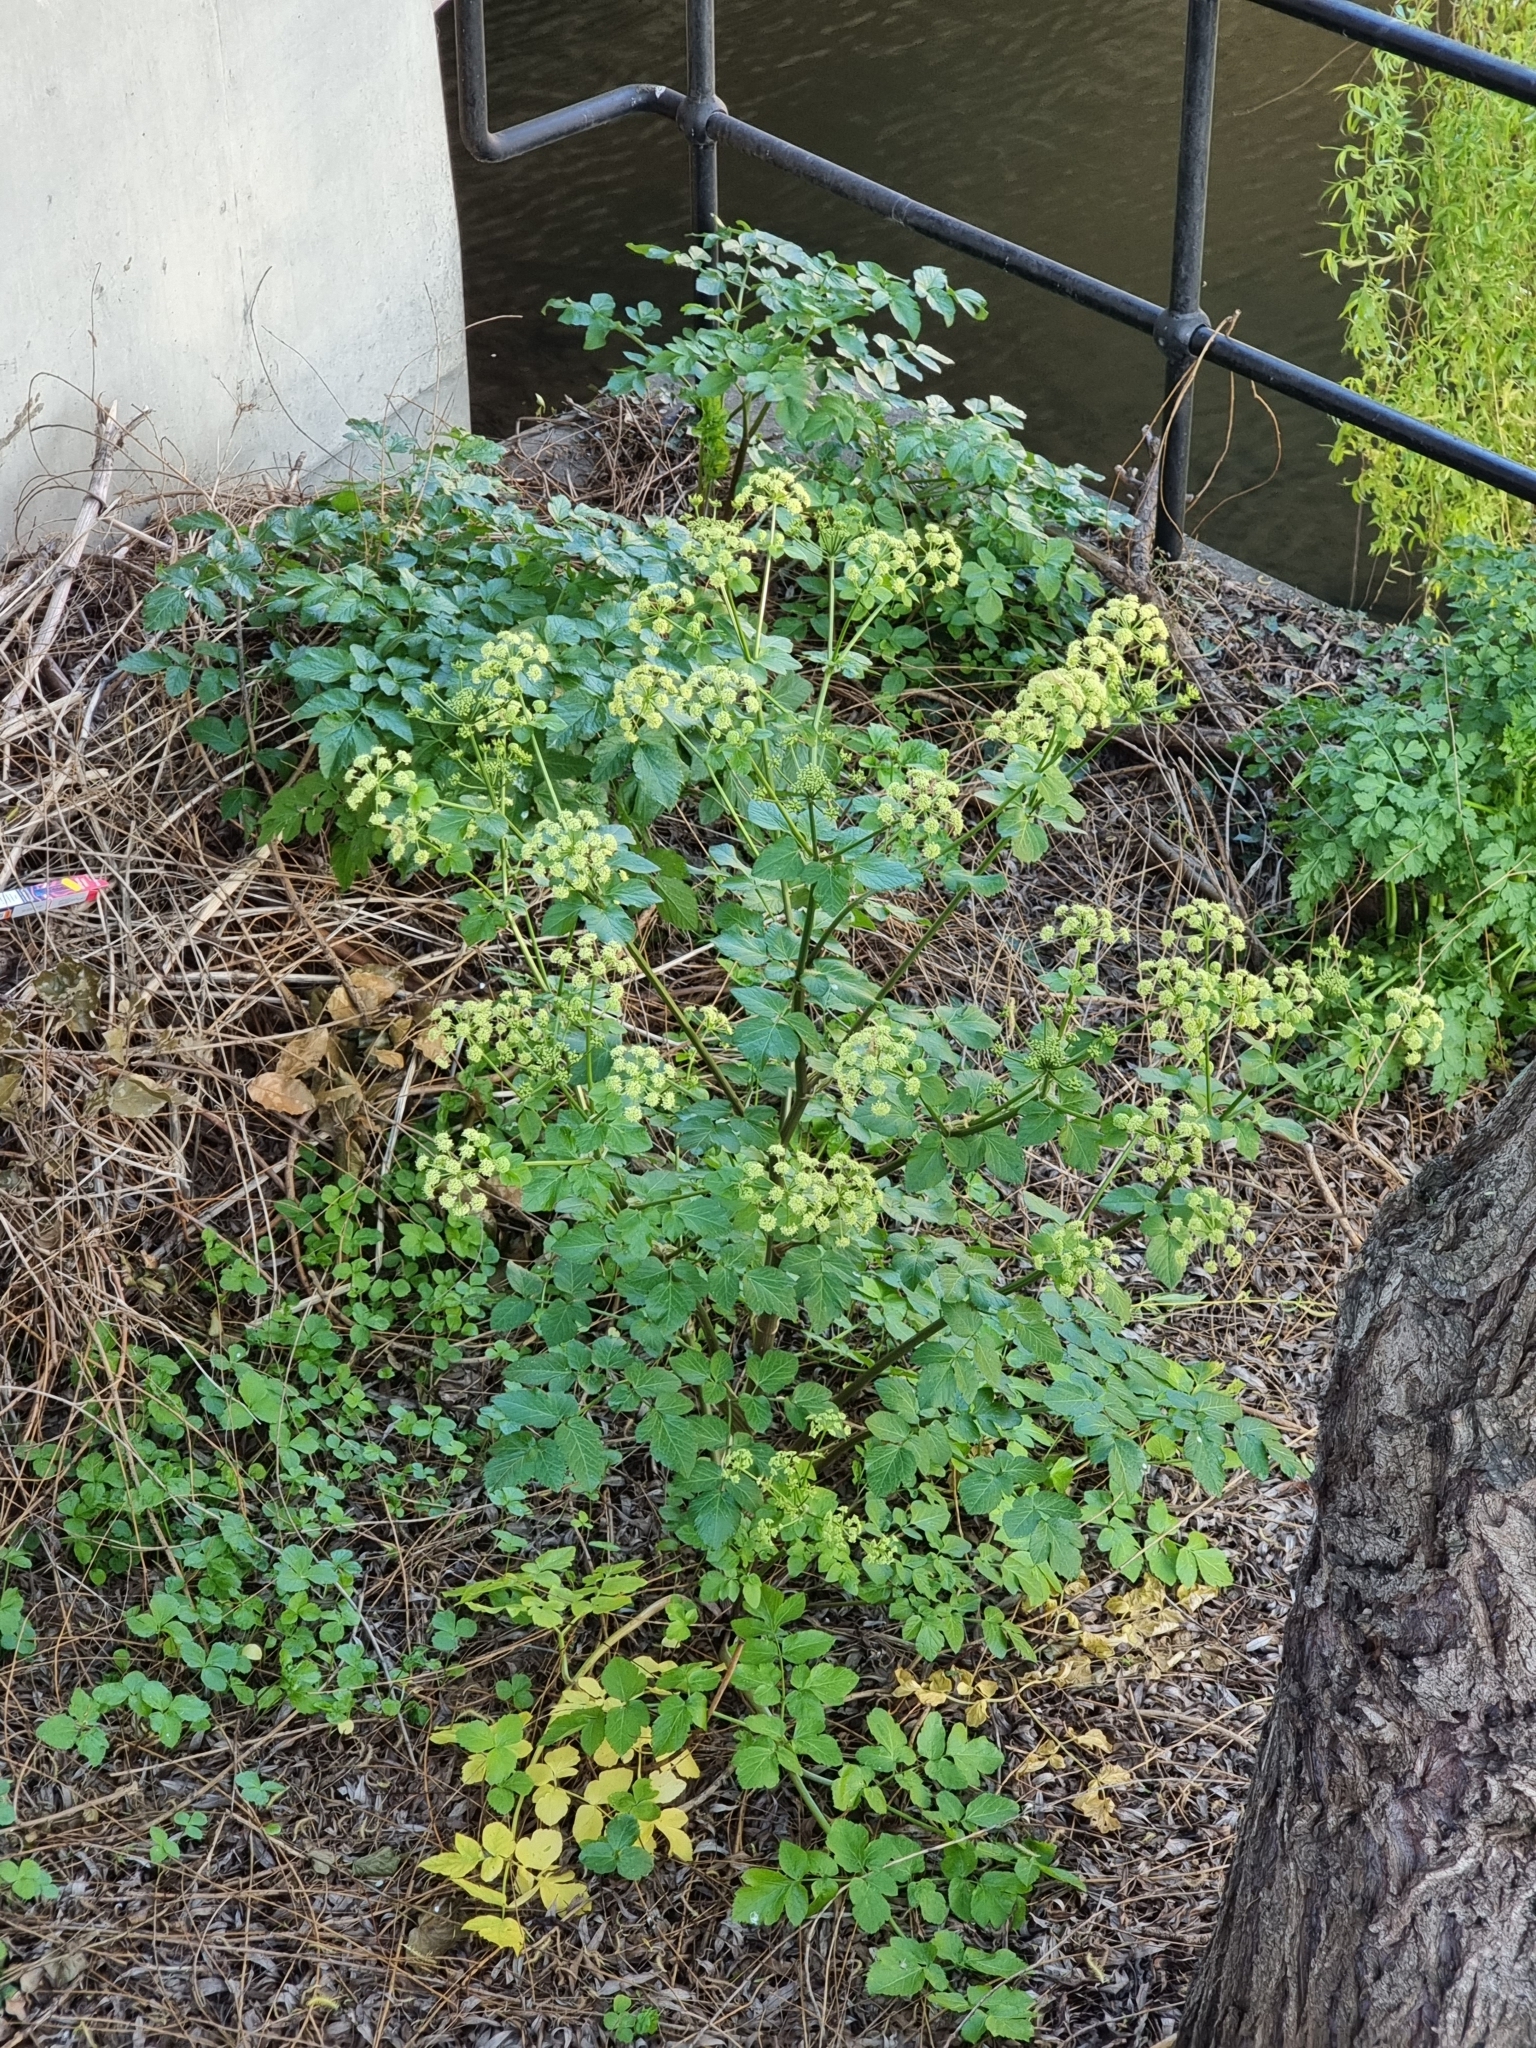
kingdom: Plantae
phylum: Tracheophyta
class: Magnoliopsida
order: Apiales
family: Apiaceae
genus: Smyrnium
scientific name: Smyrnium olusatrum
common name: Alexanders
